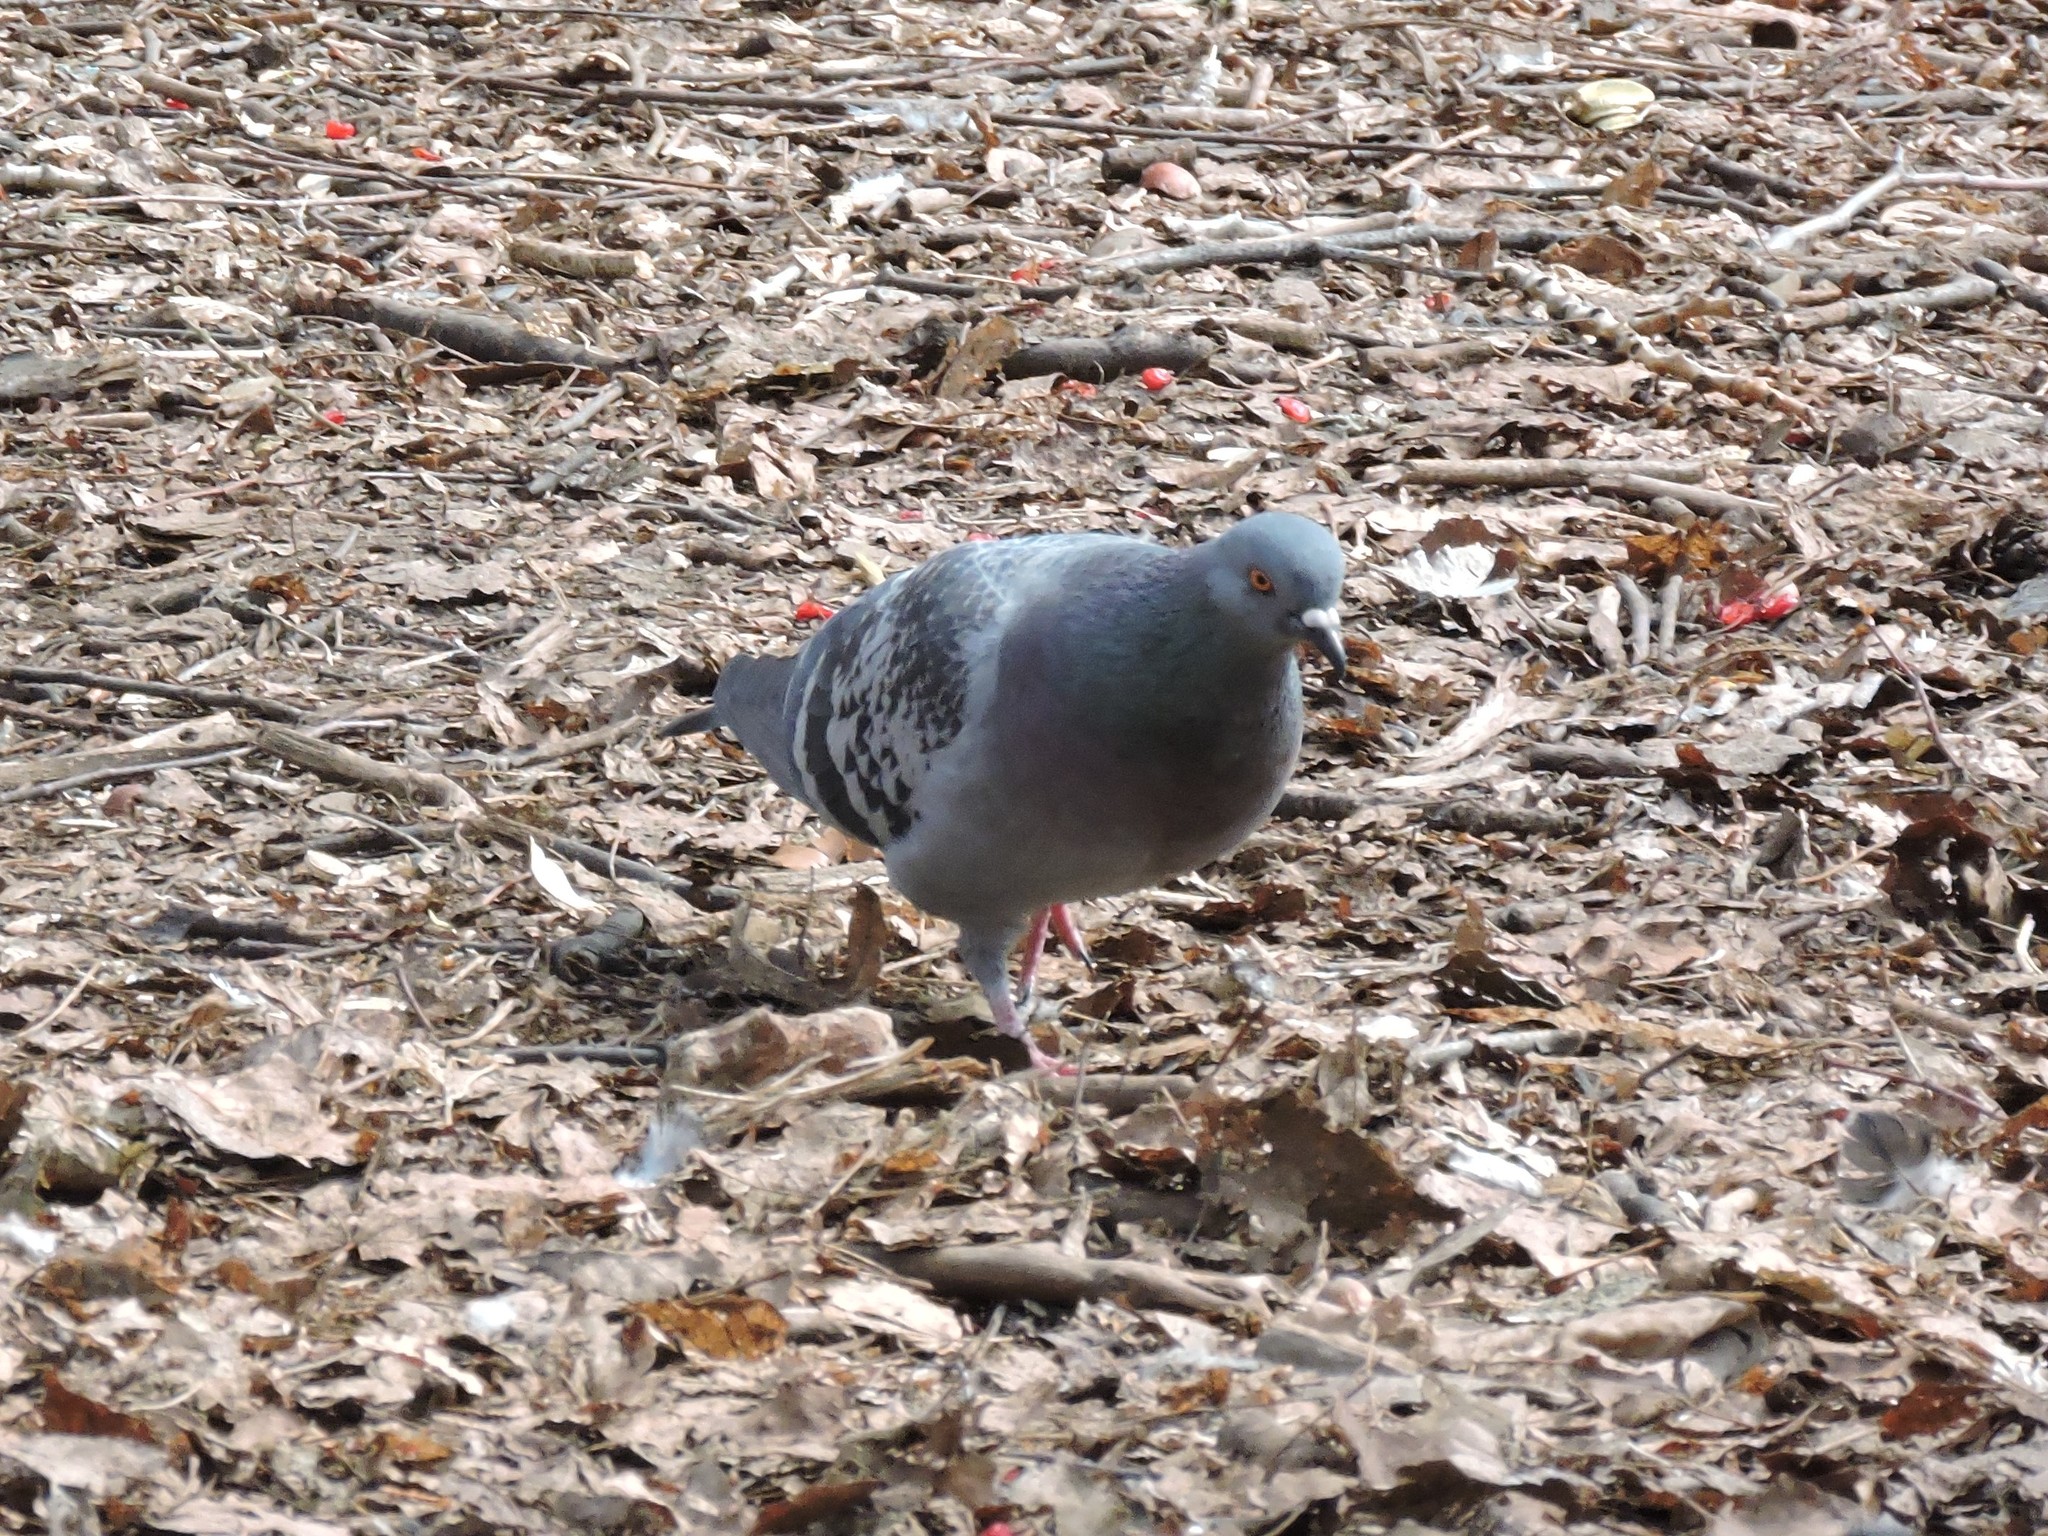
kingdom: Animalia
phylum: Chordata
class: Aves
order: Columbiformes
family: Columbidae
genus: Columba
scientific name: Columba livia
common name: Rock pigeon
